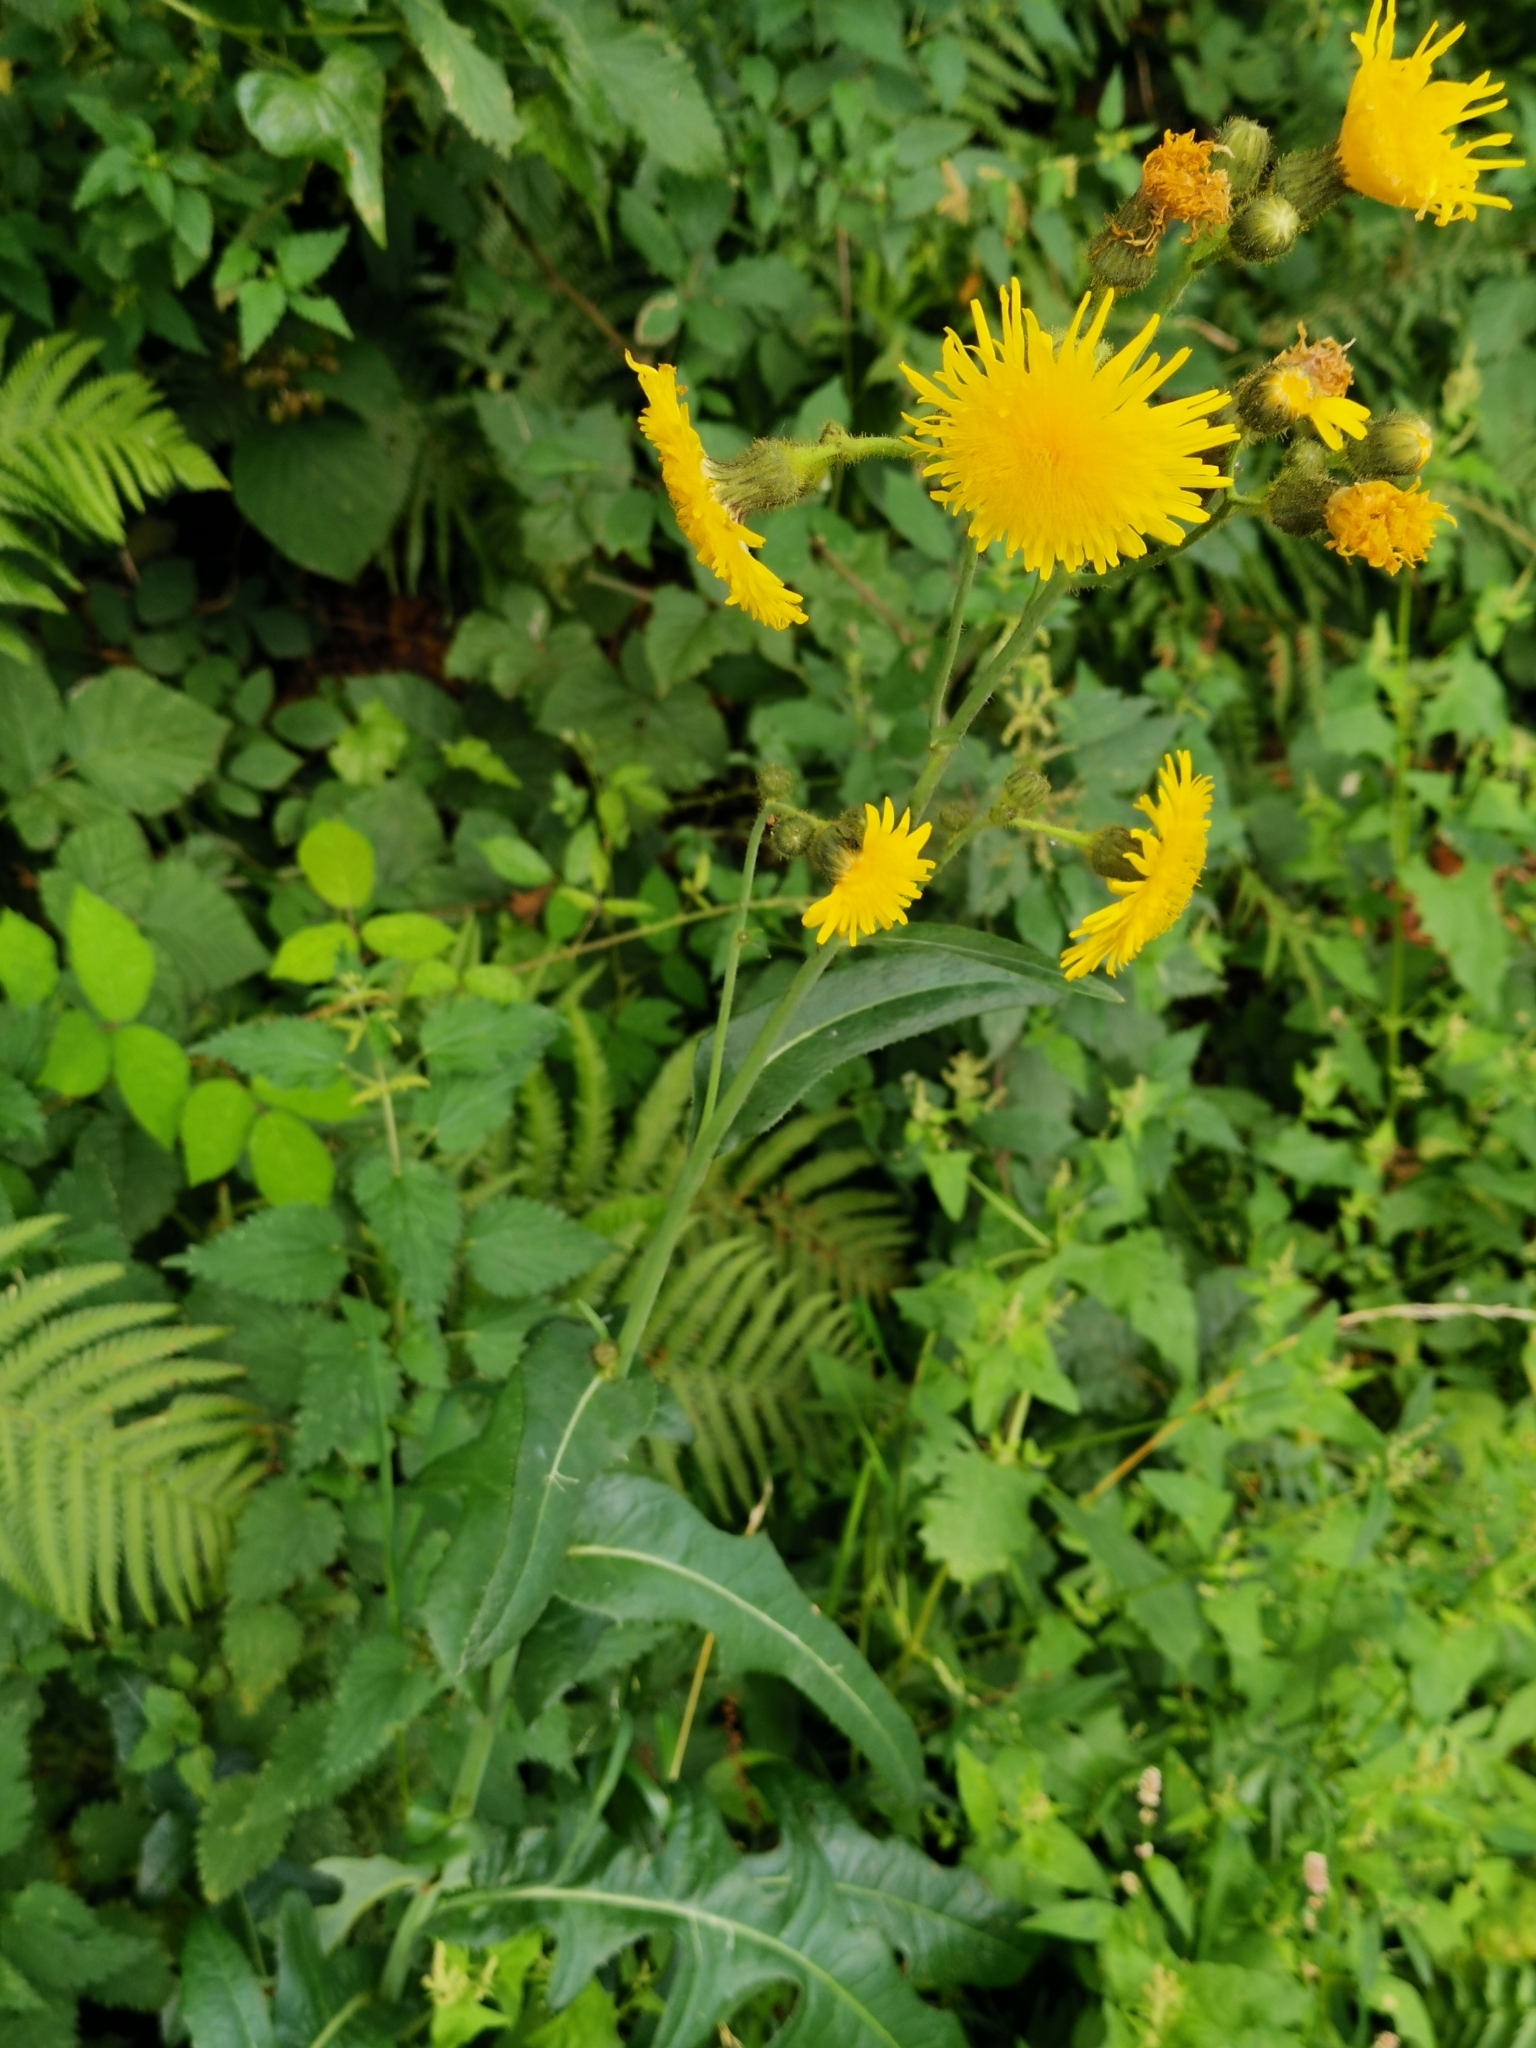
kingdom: Plantae
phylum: Tracheophyta
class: Magnoliopsida
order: Asterales
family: Asteraceae
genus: Sonchus
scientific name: Sonchus arvensis
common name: Perennial sow-thistle
